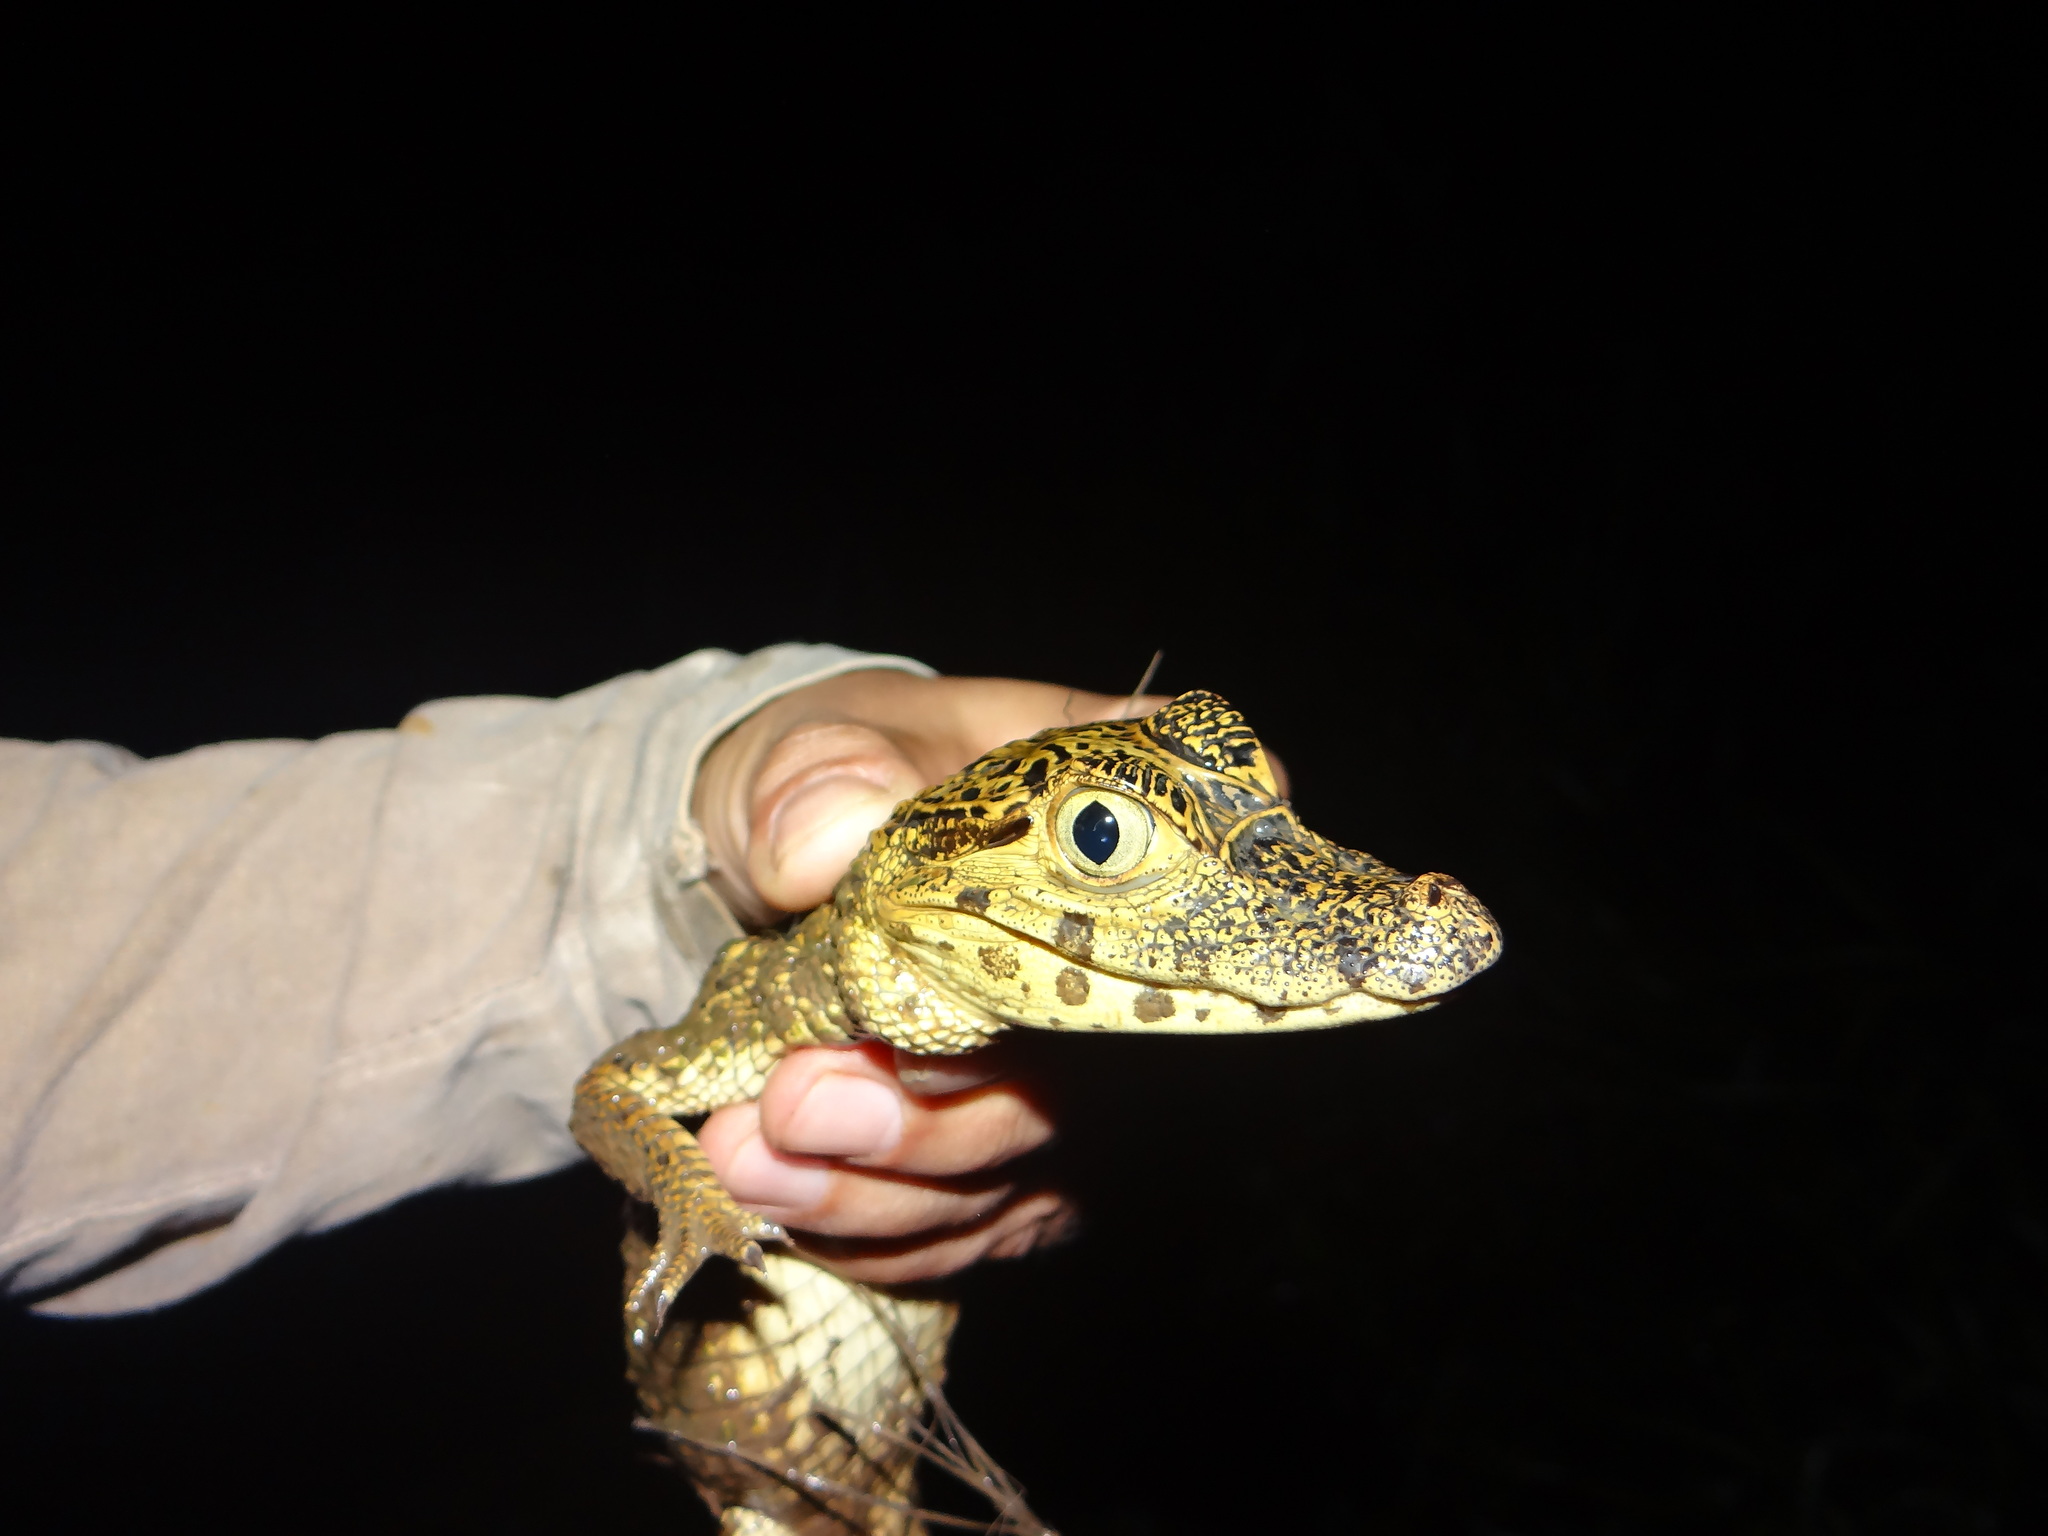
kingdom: Animalia
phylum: Chordata
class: Crocodylia
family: Alligatoridae
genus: Caiman
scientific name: Caiman yacare
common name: Yacare caiman
